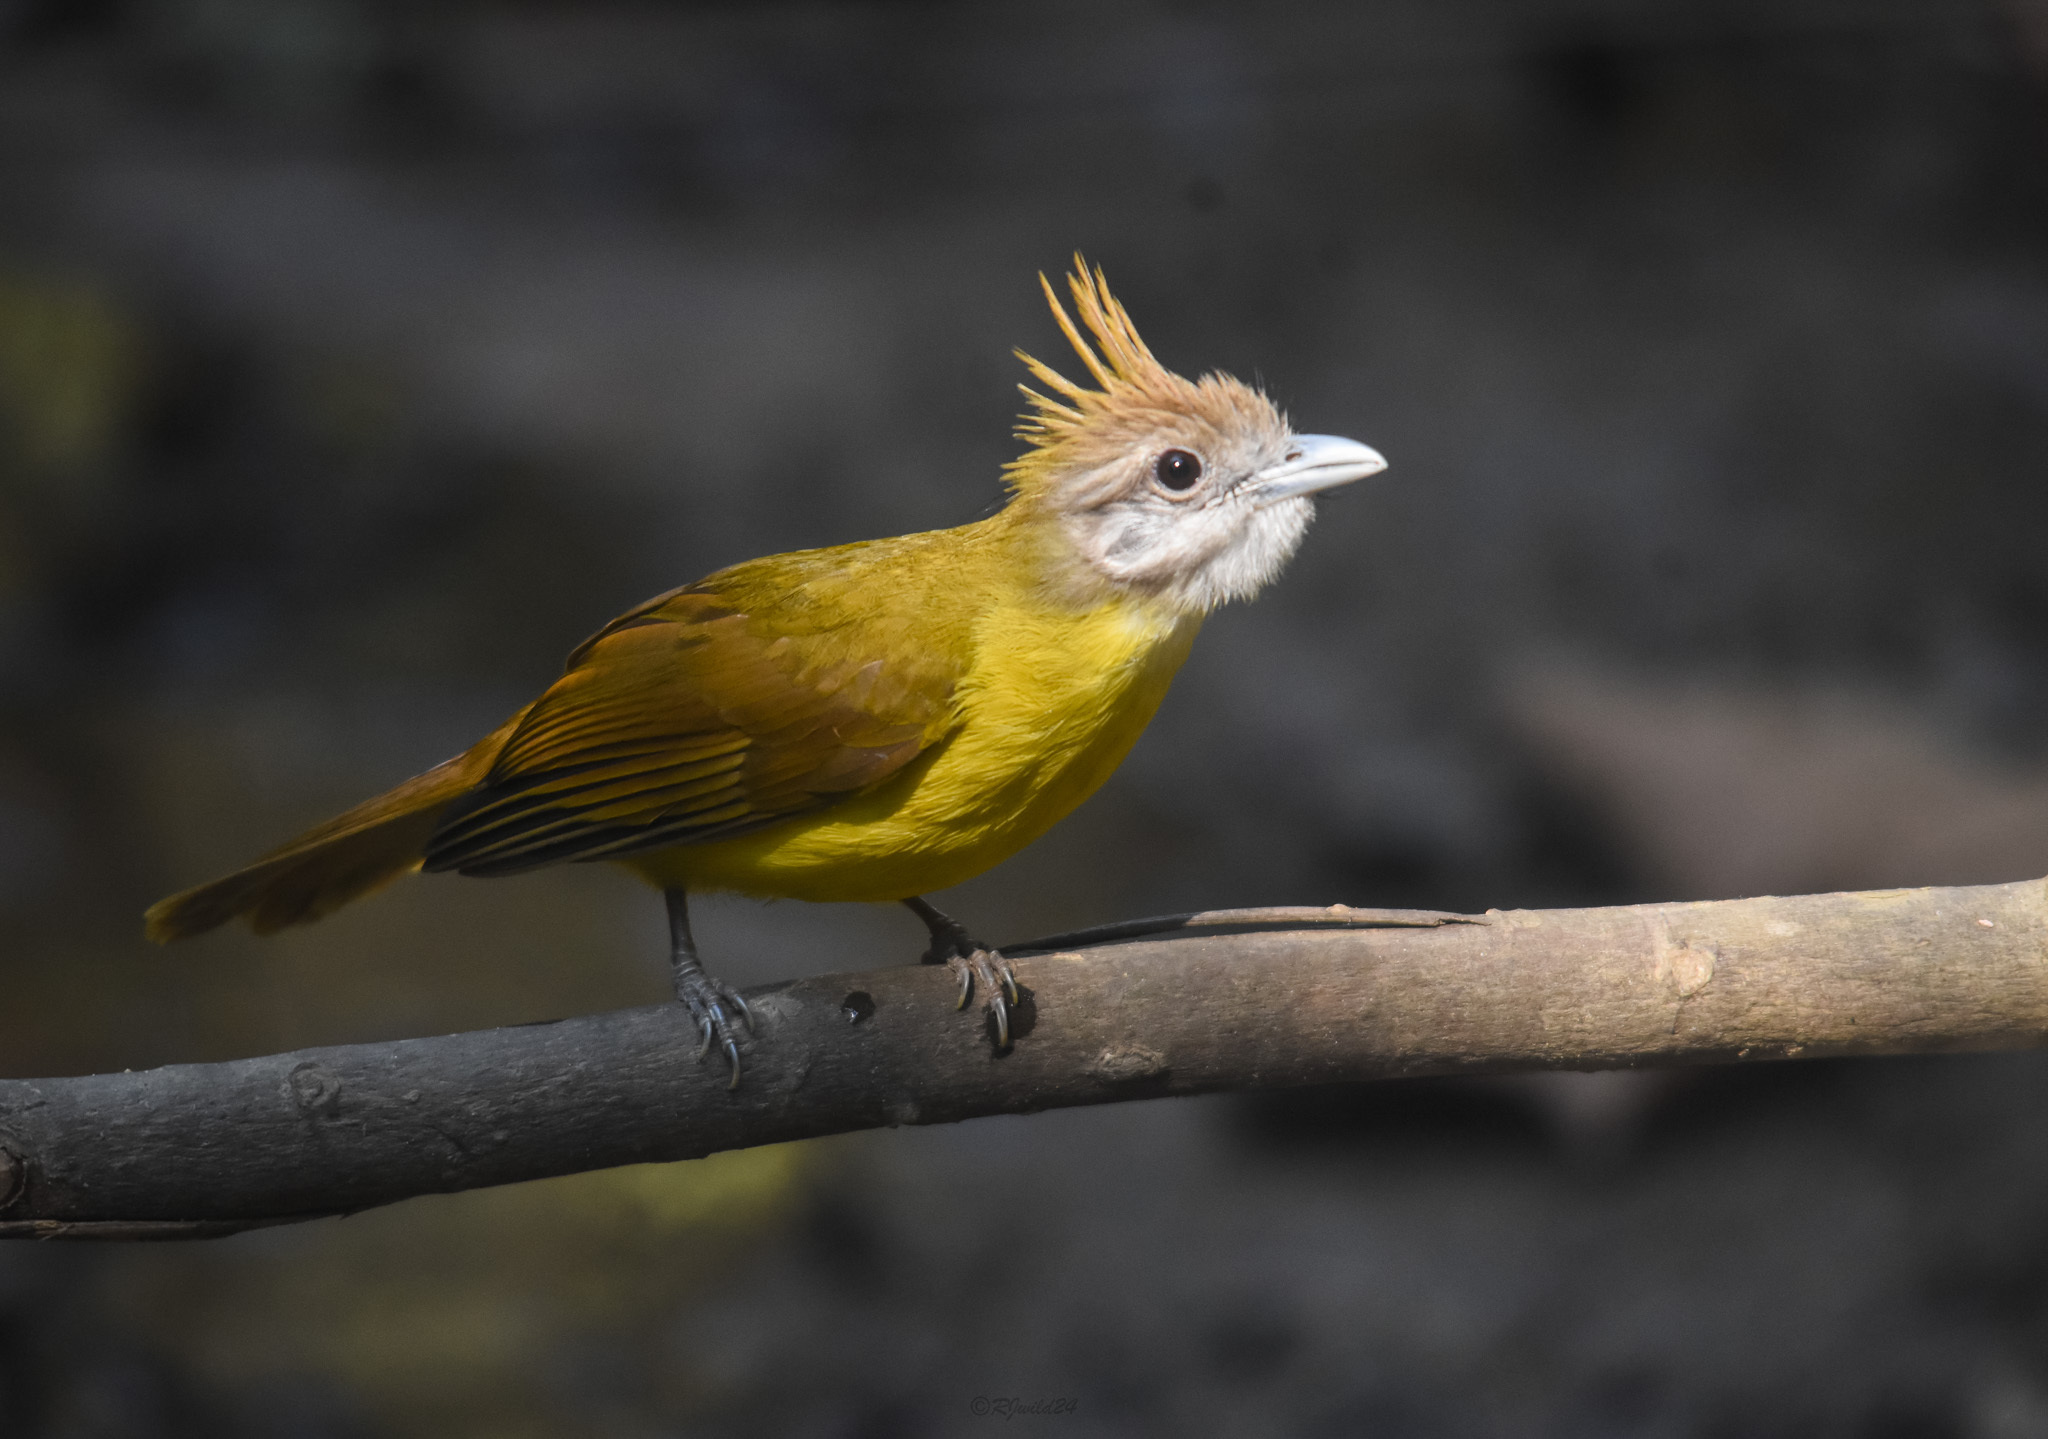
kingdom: Animalia
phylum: Chordata
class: Aves
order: Passeriformes
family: Pycnonotidae
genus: Alophoixus
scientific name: Alophoixus flaveolus
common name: White-throated bulbul
